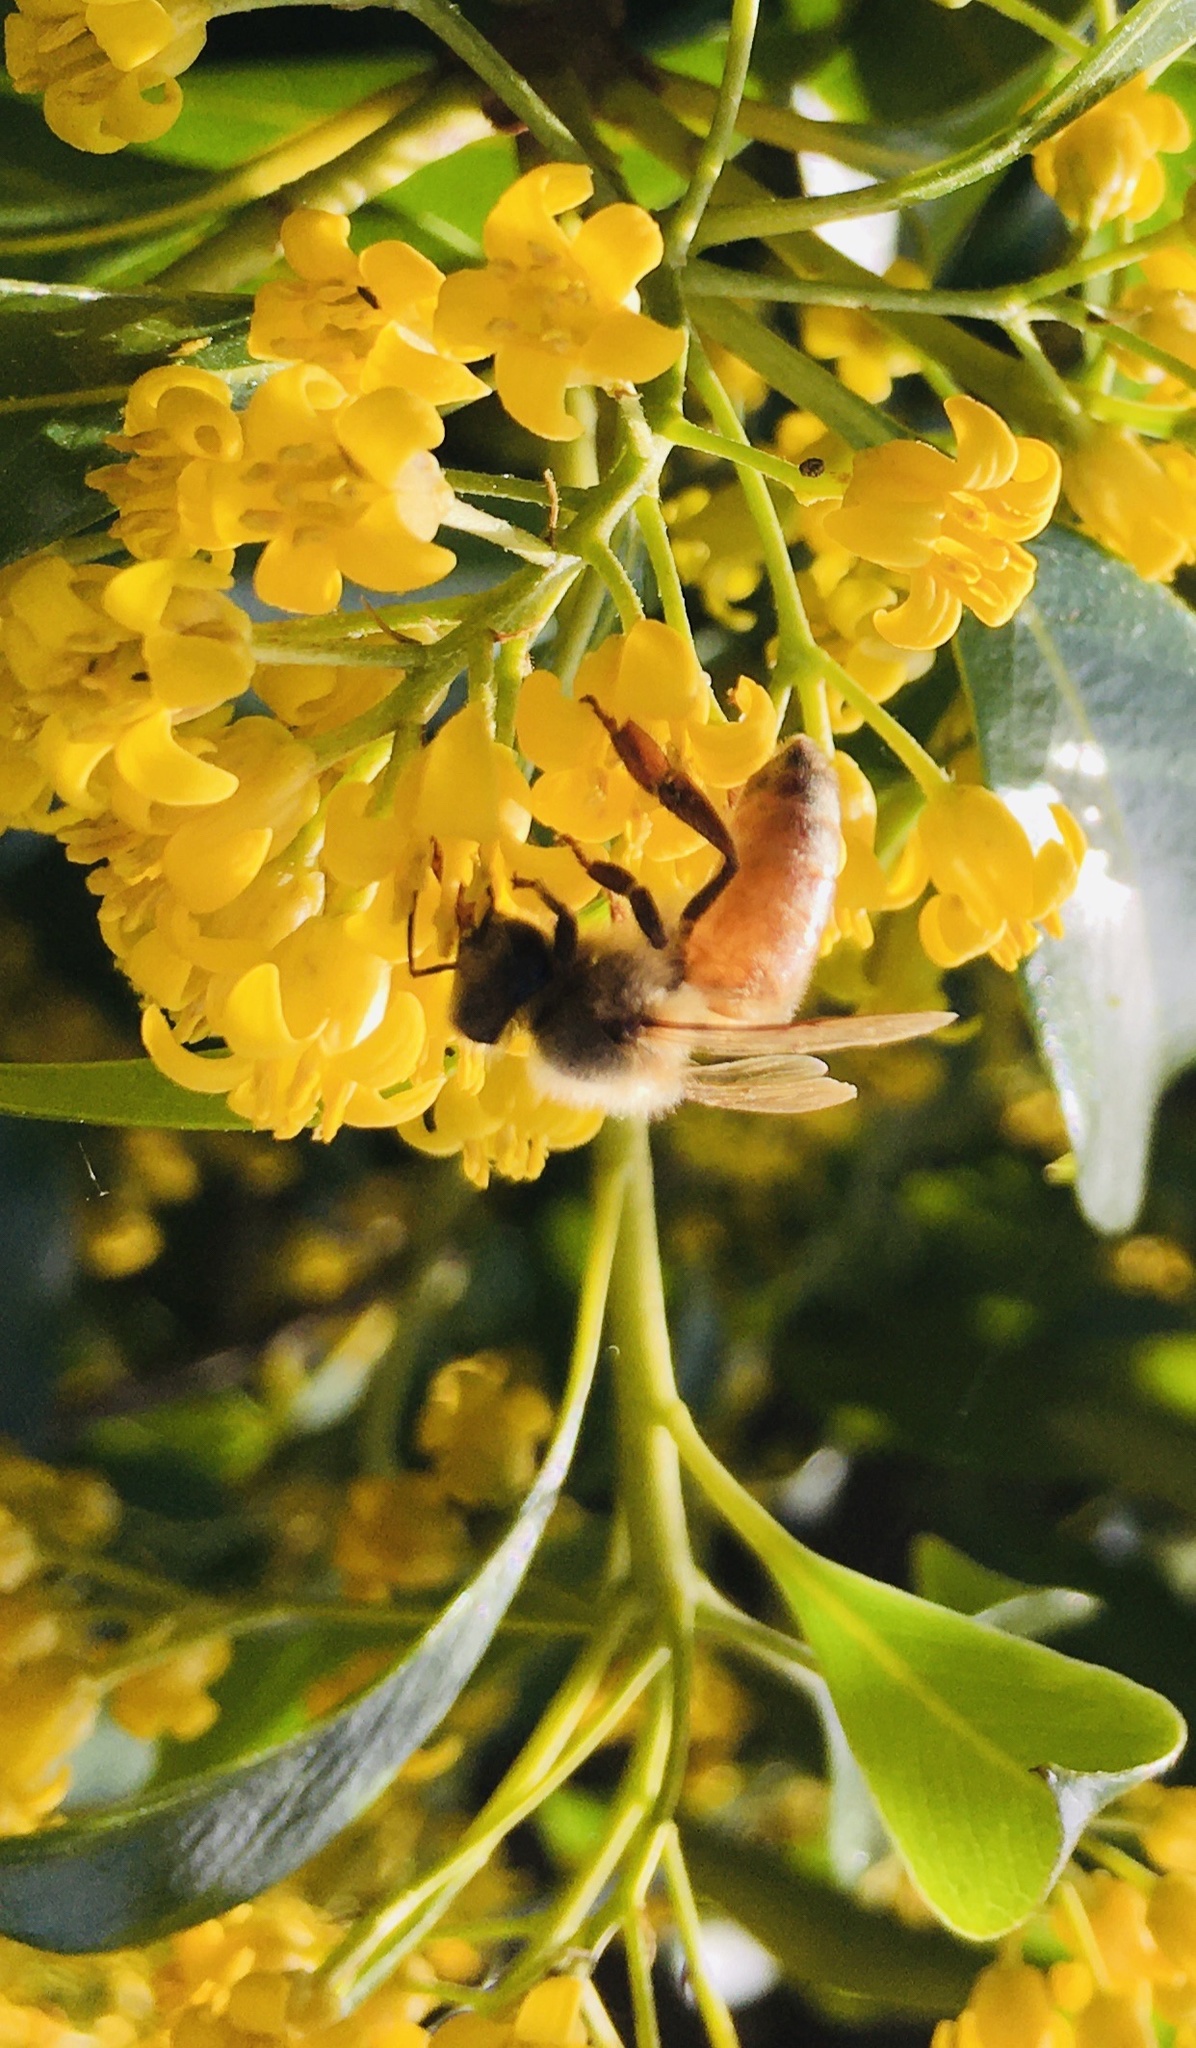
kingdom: Animalia
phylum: Arthropoda
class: Insecta
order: Hymenoptera
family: Apidae
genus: Apis
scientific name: Apis mellifera
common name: Honey bee
